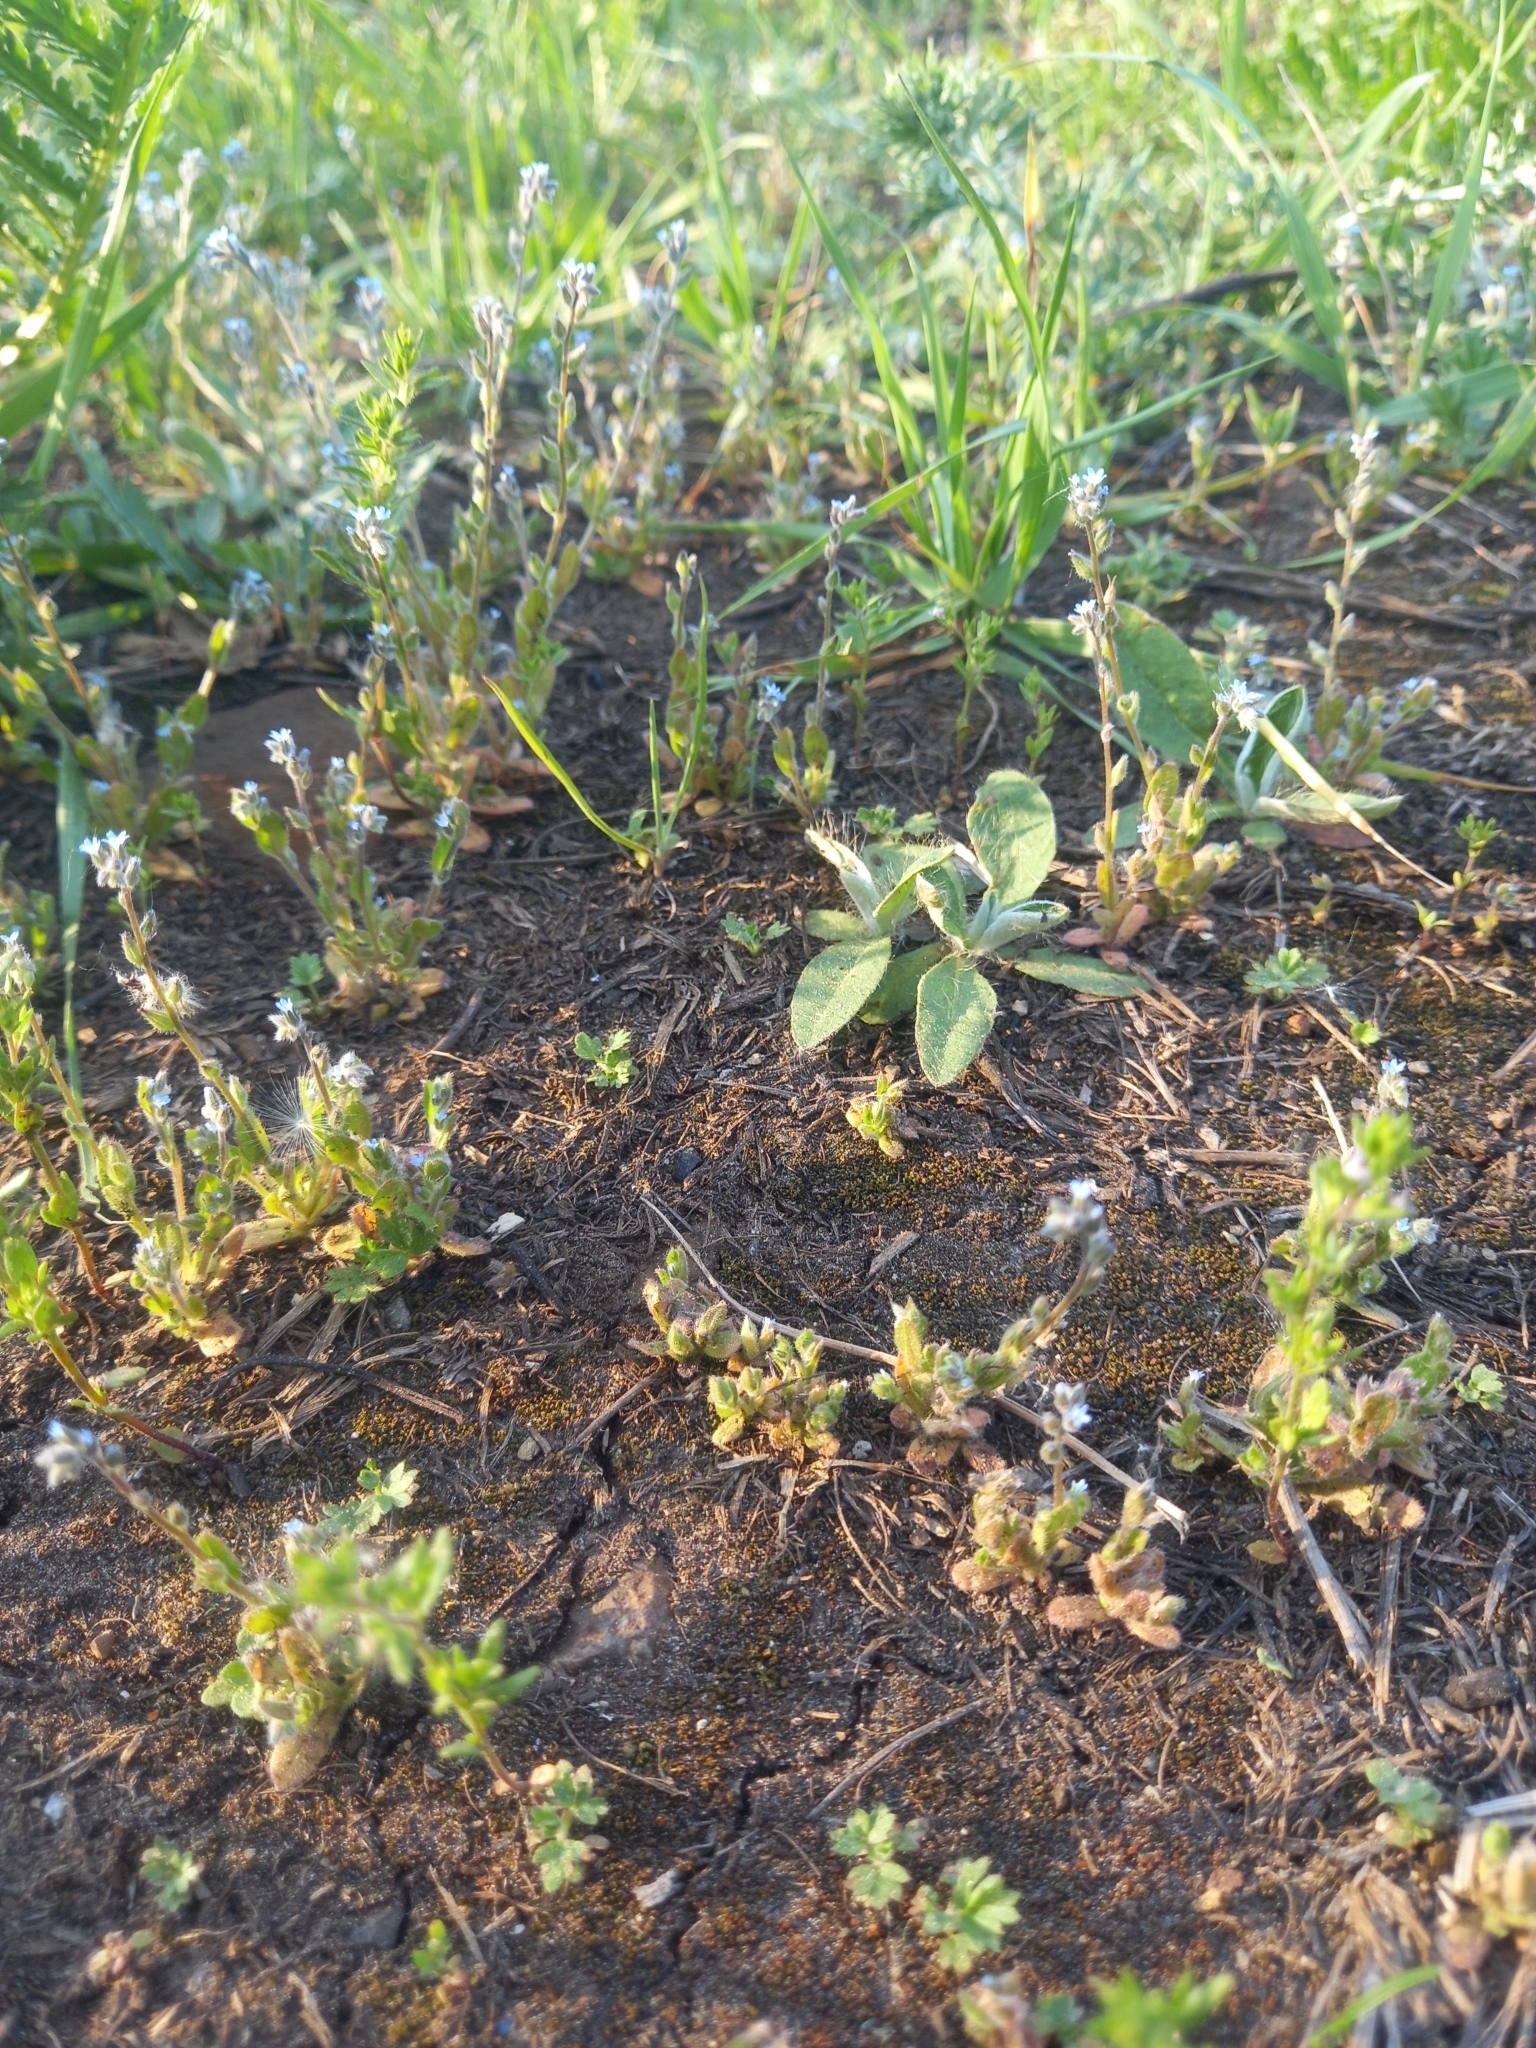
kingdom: Plantae
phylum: Tracheophyta
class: Magnoliopsida
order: Boraginales
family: Boraginaceae
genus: Myosotis
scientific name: Myosotis stricta
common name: Strict forget-me-not
